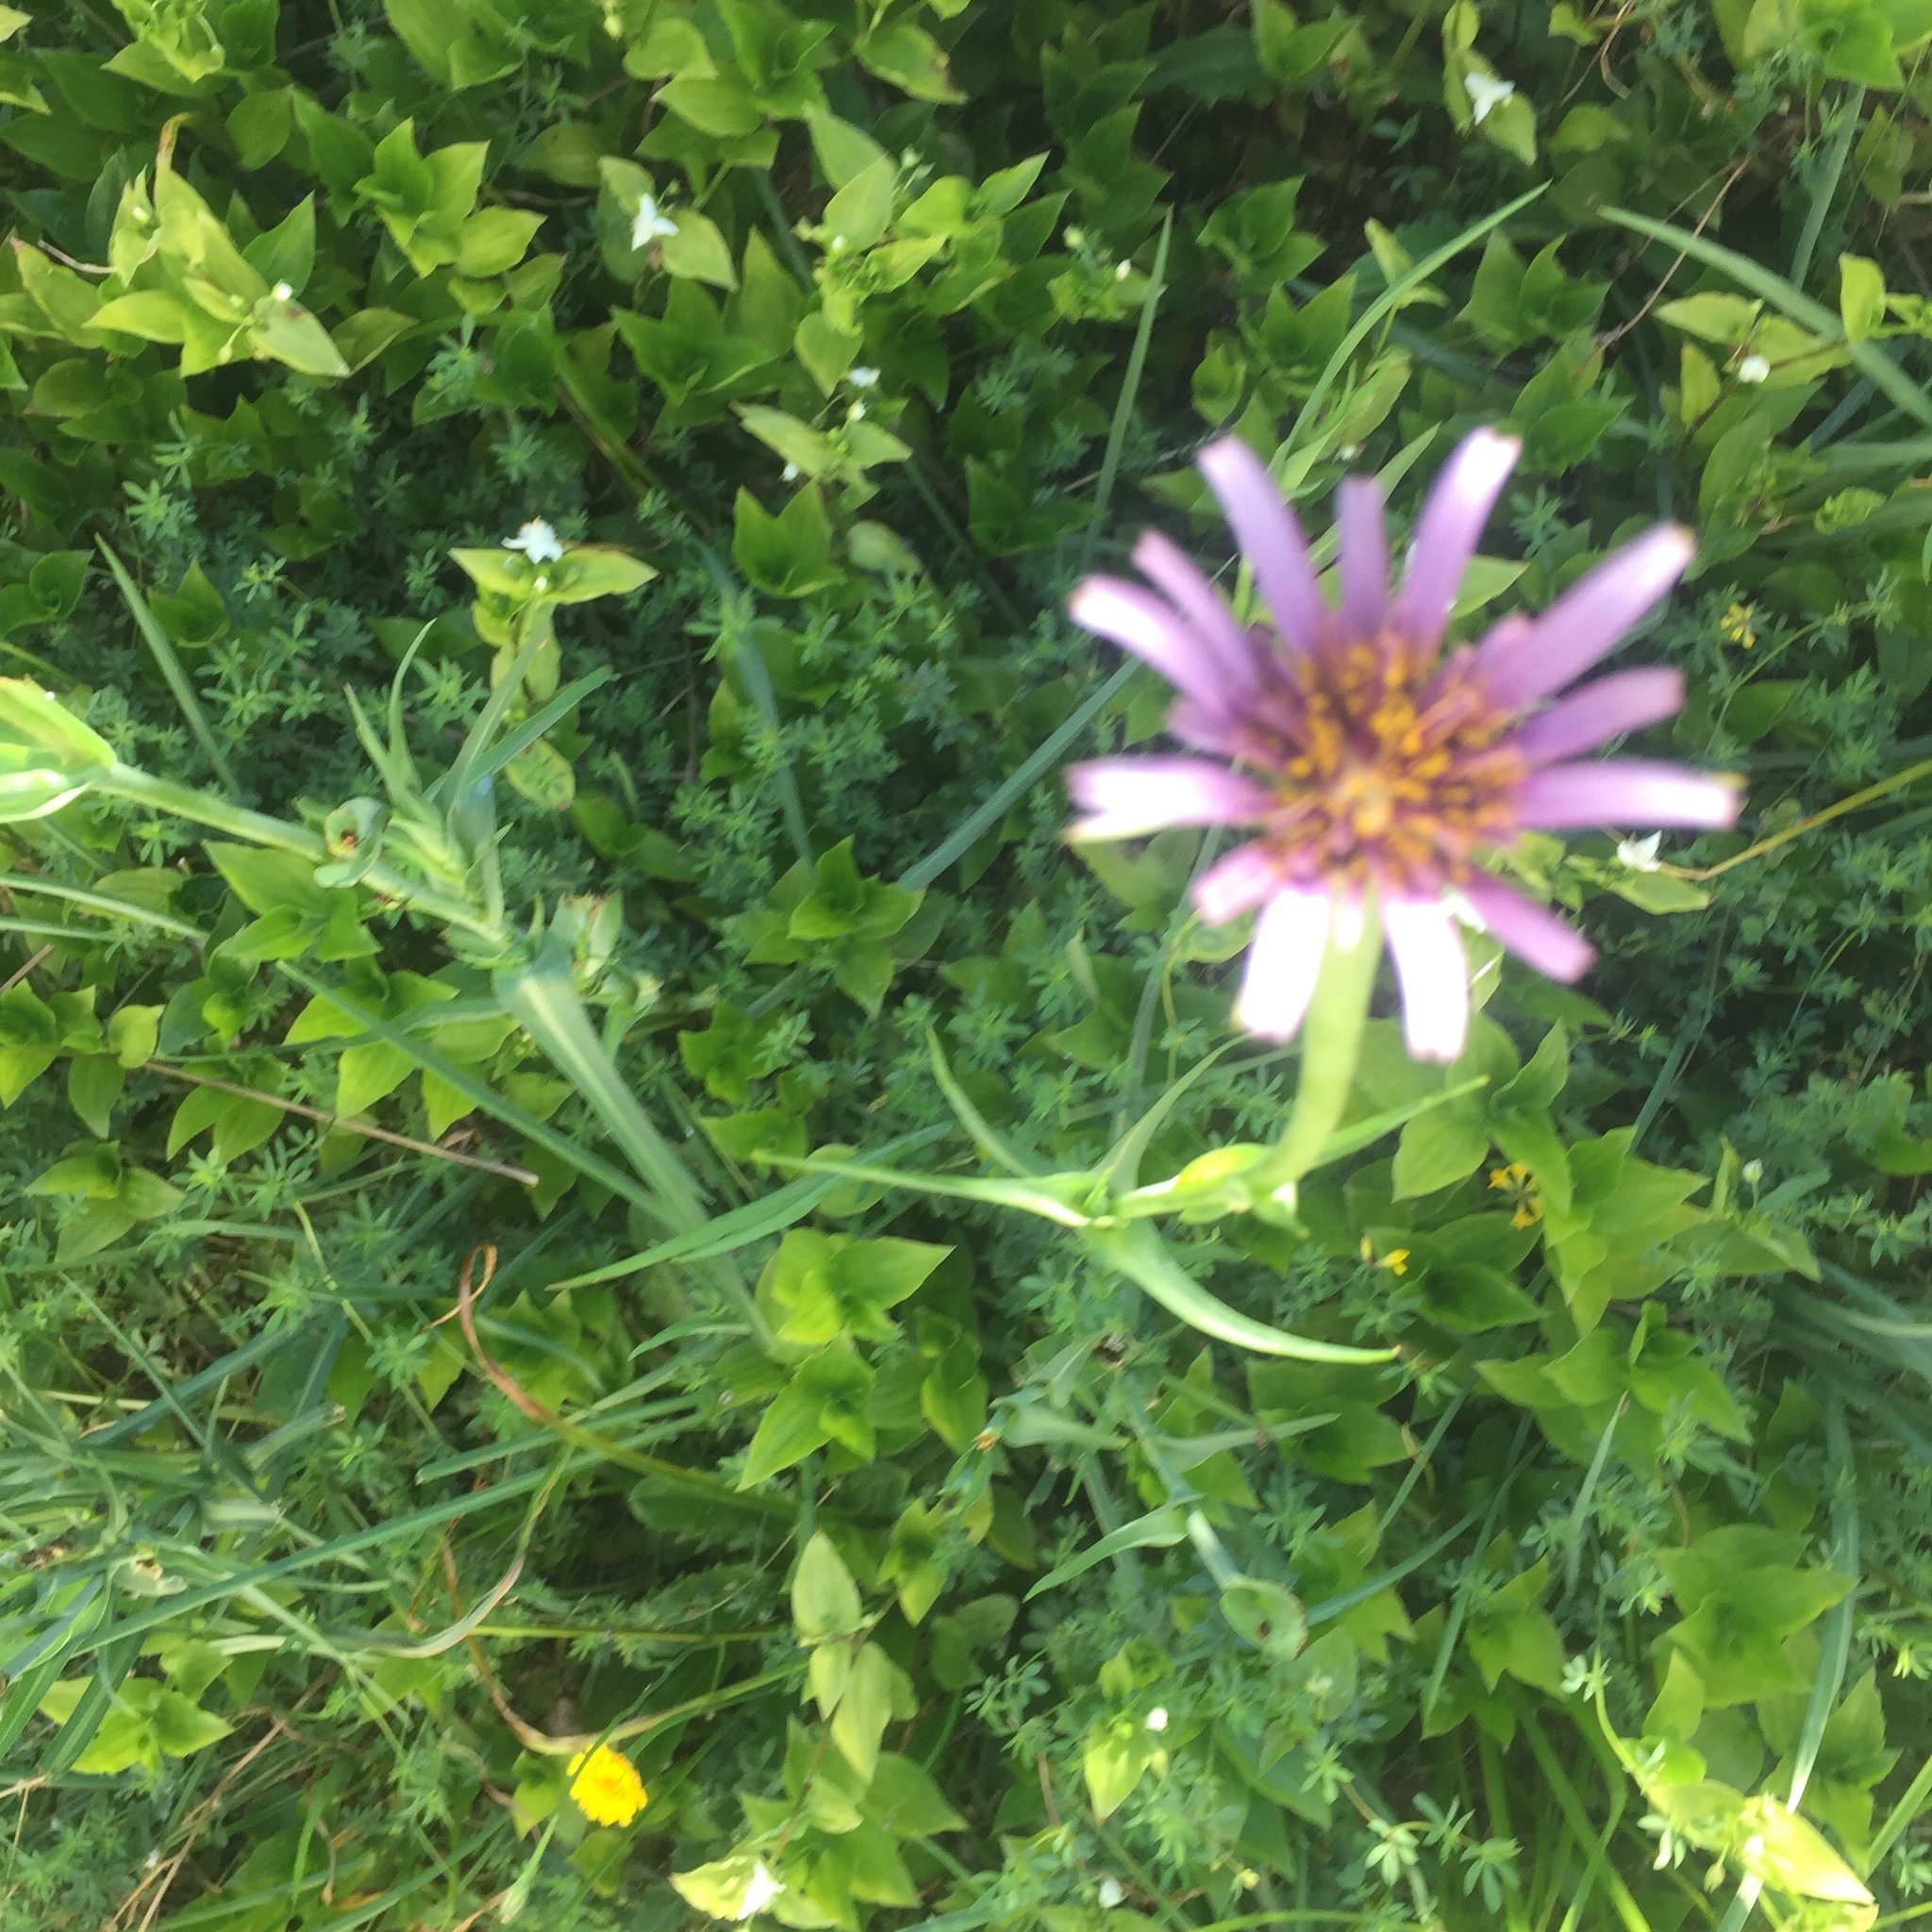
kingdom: Plantae
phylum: Tracheophyta
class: Magnoliopsida
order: Asterales
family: Asteraceae
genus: Tragopogon
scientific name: Tragopogon porrifolius
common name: Salsify
